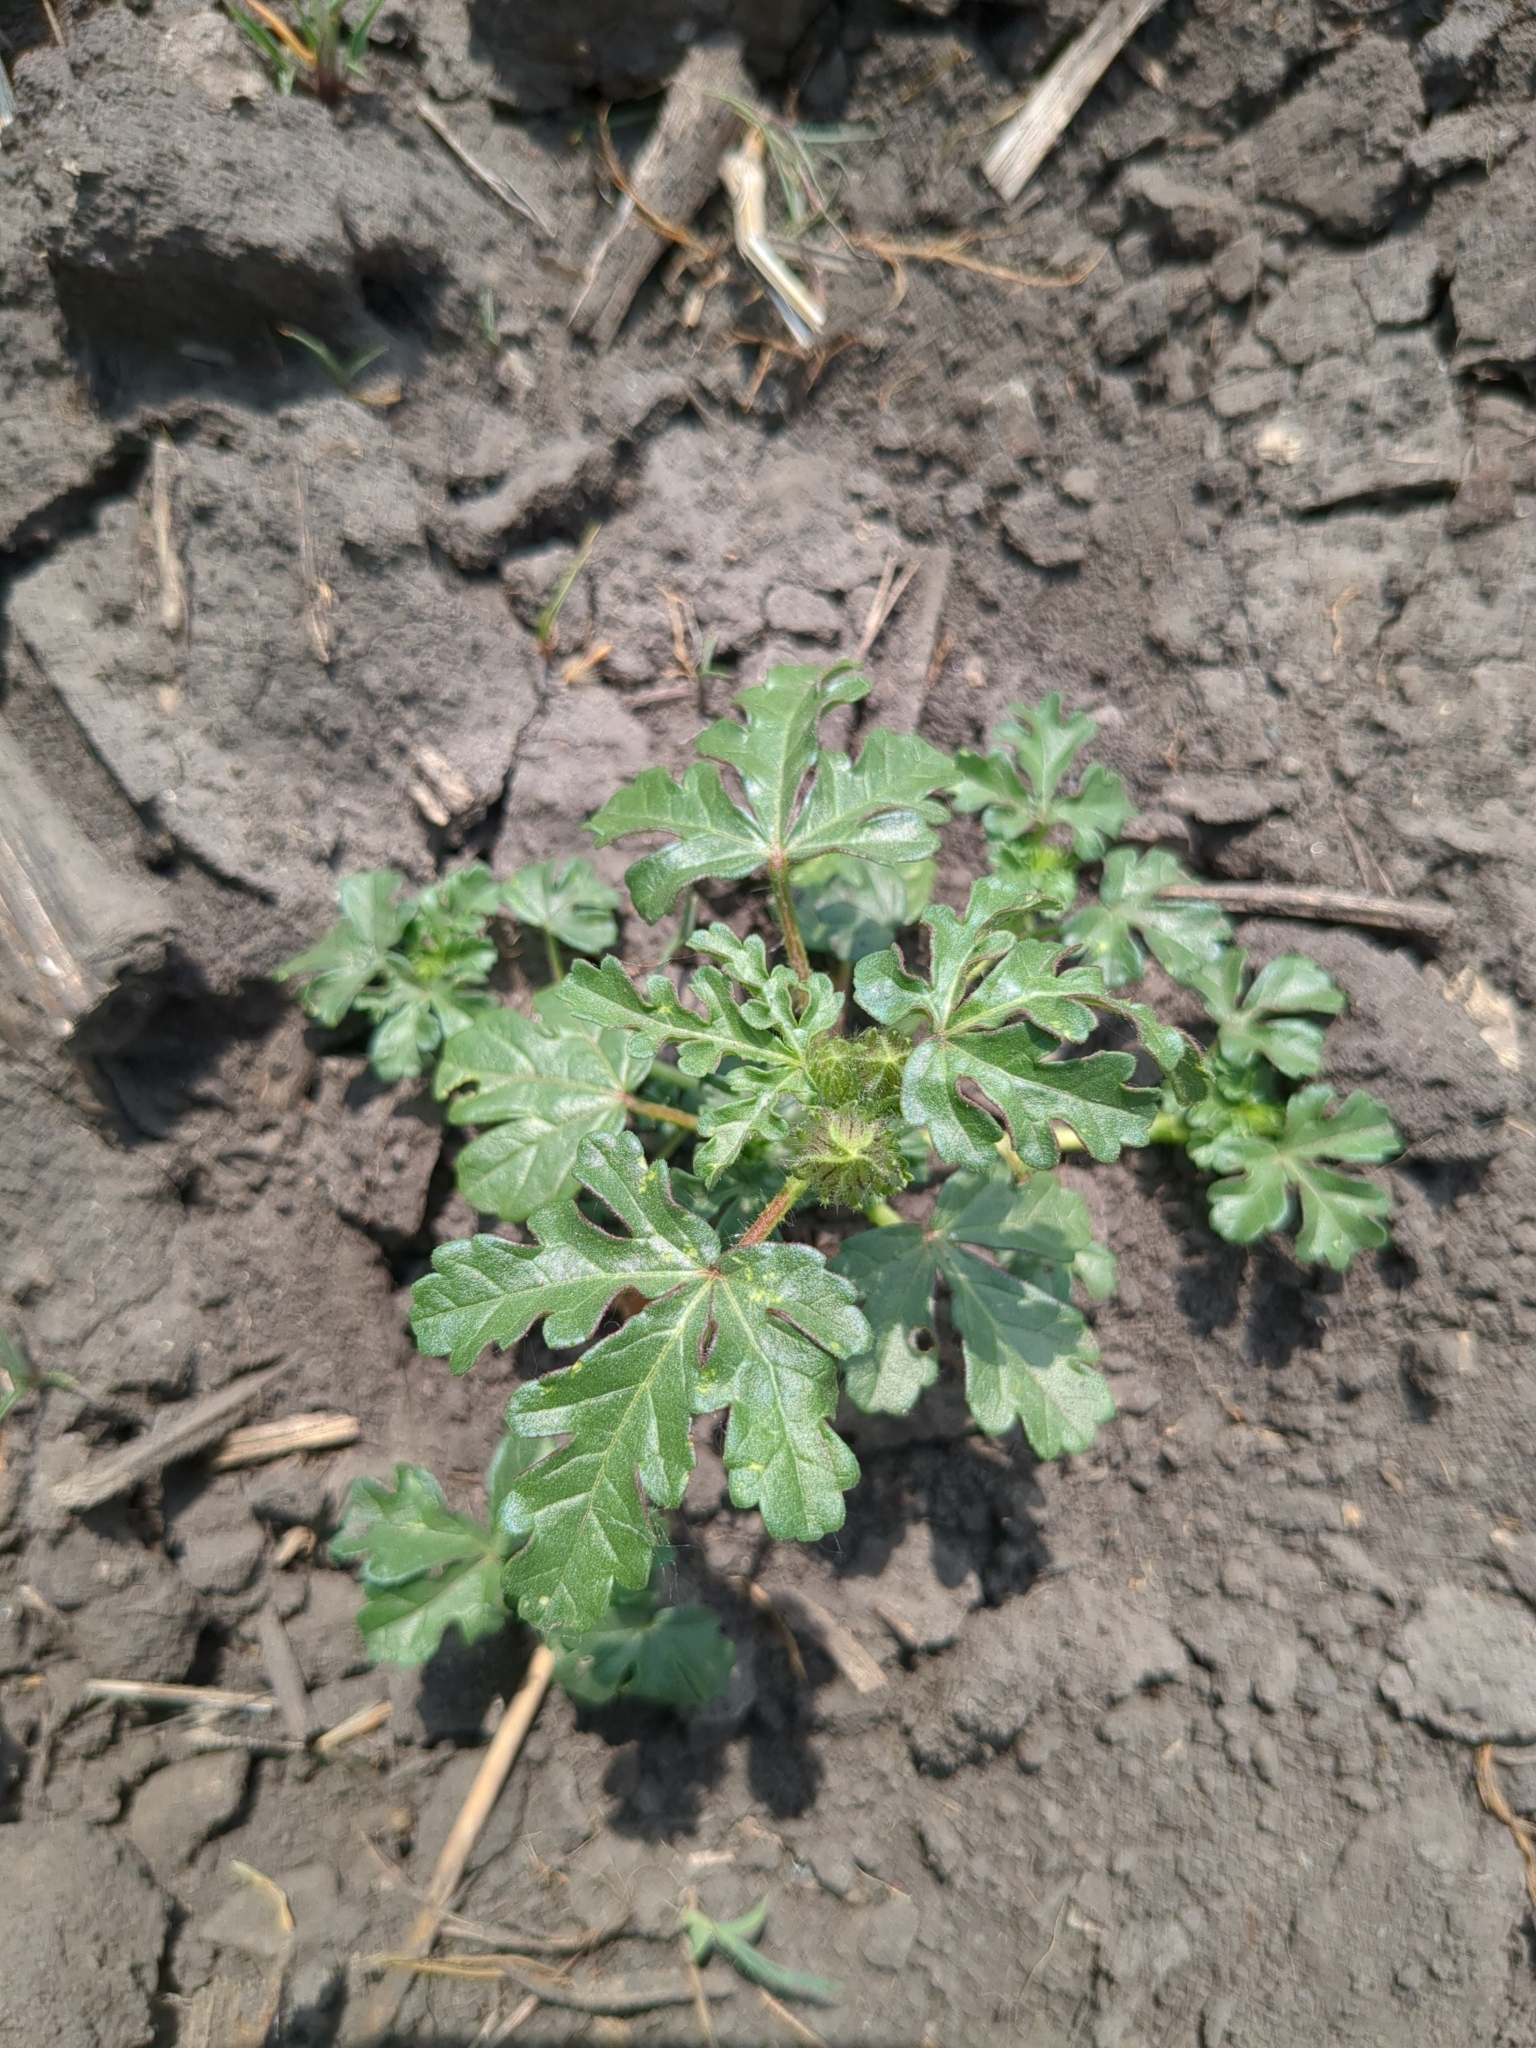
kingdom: Plantae
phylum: Tracheophyta
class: Magnoliopsida
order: Malvales
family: Malvaceae
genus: Hibiscus
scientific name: Hibiscus trionum
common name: Bladder ketmia
